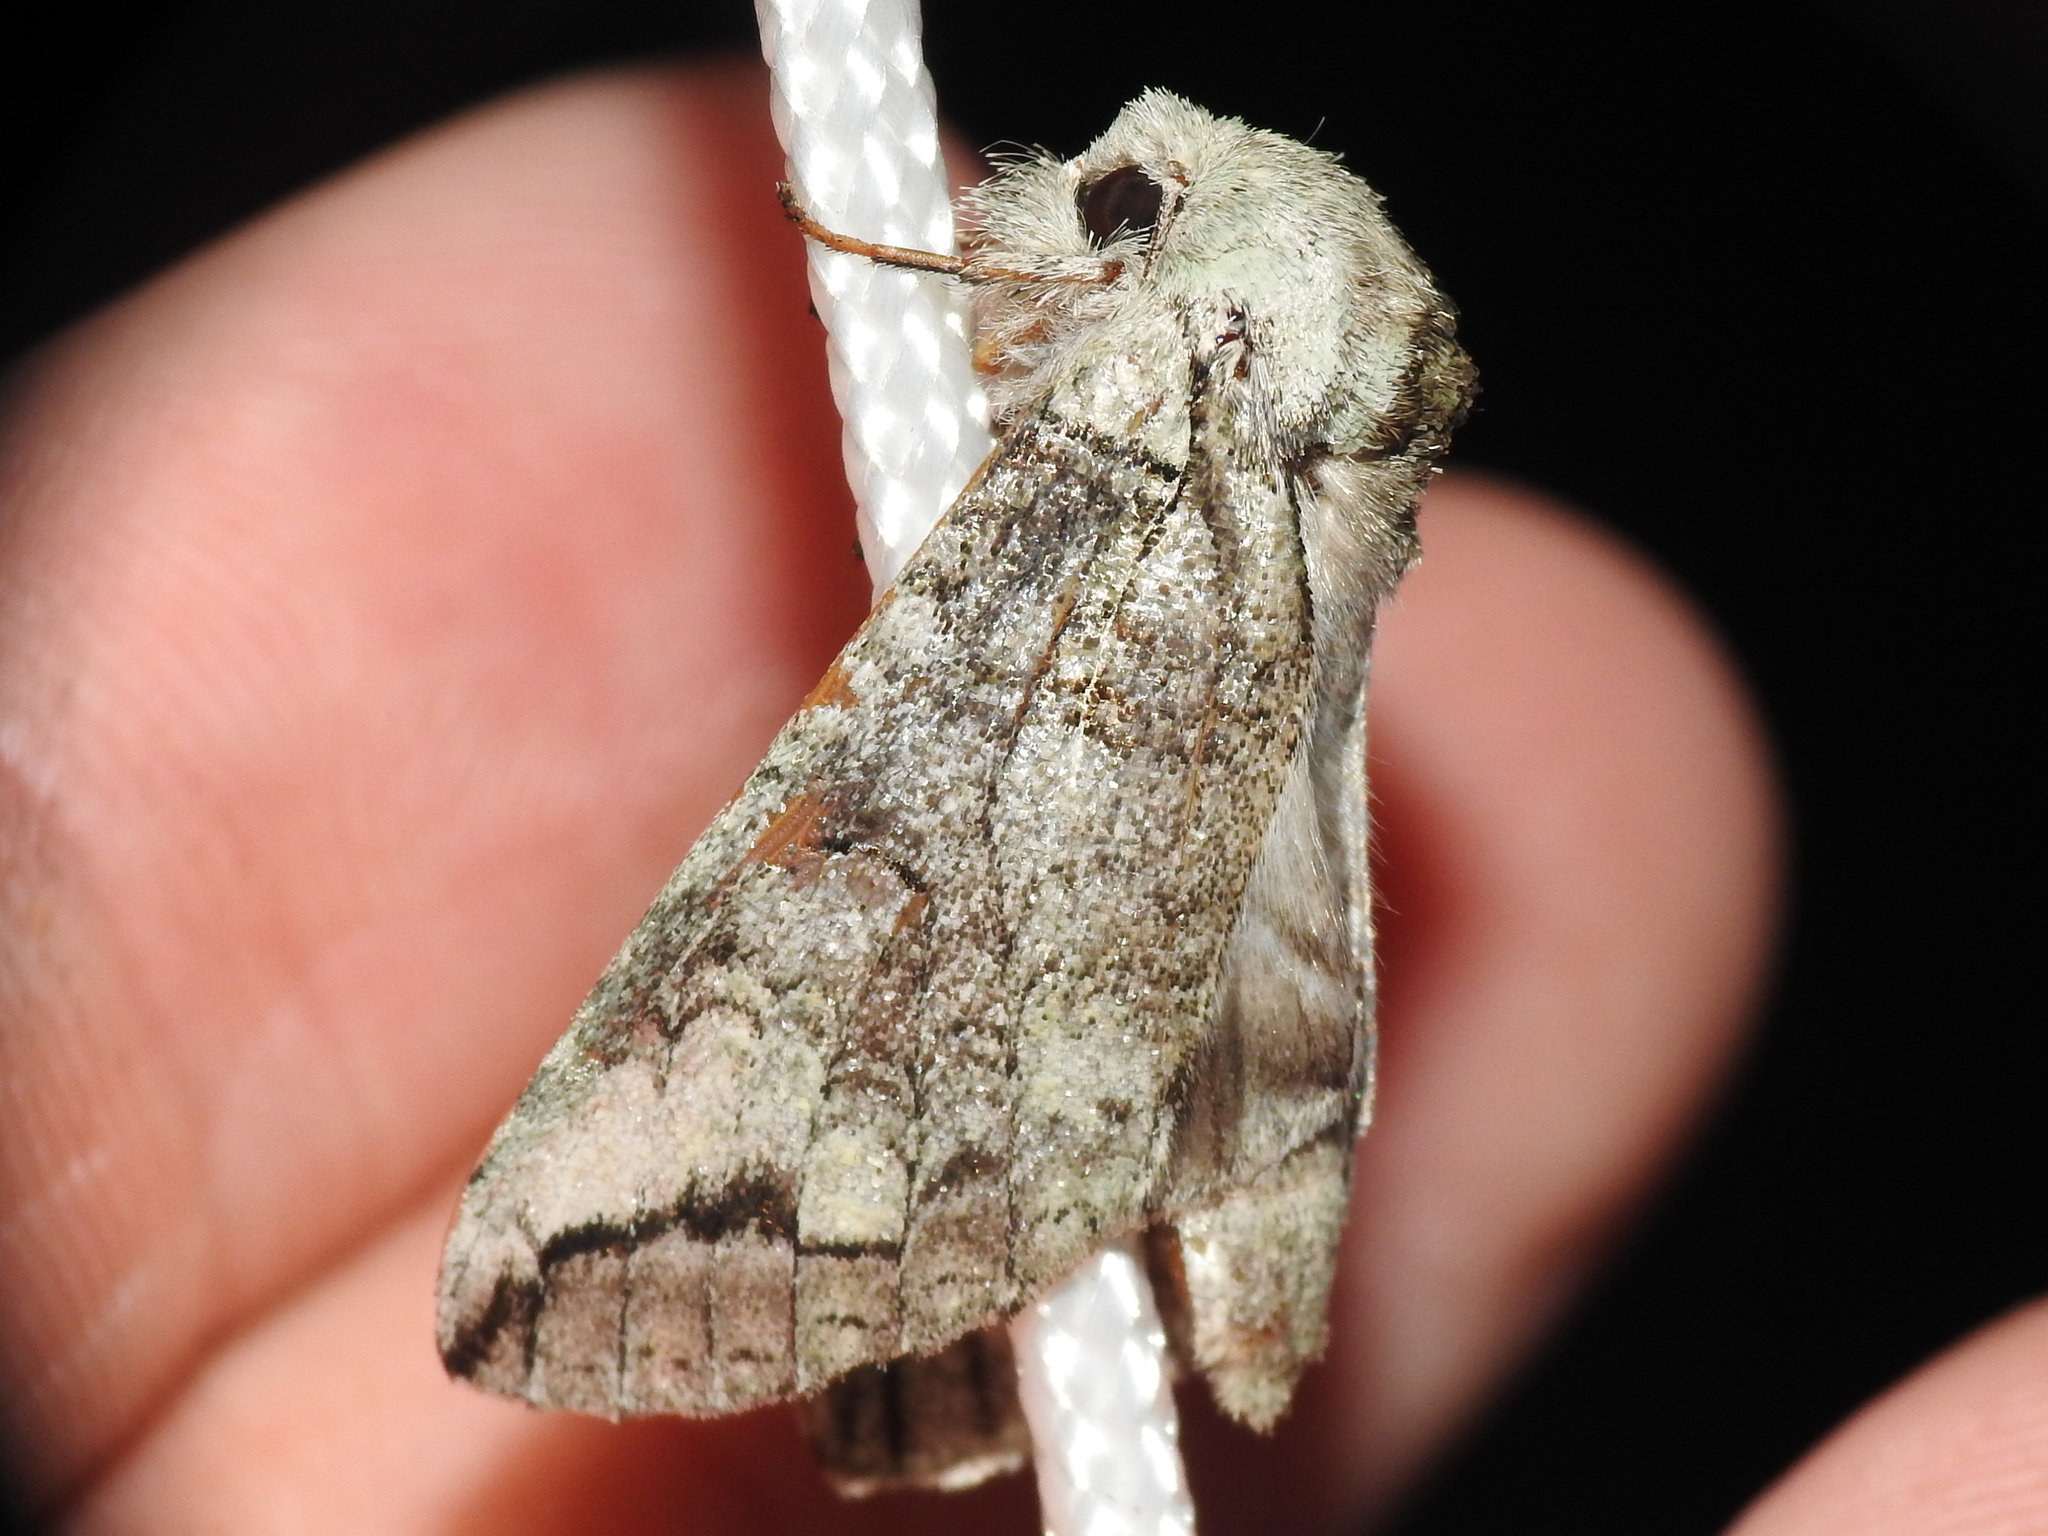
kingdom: Animalia
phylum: Arthropoda
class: Insecta
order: Lepidoptera
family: Notodontidae
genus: Heterocampa
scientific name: Heterocampa astartoides
